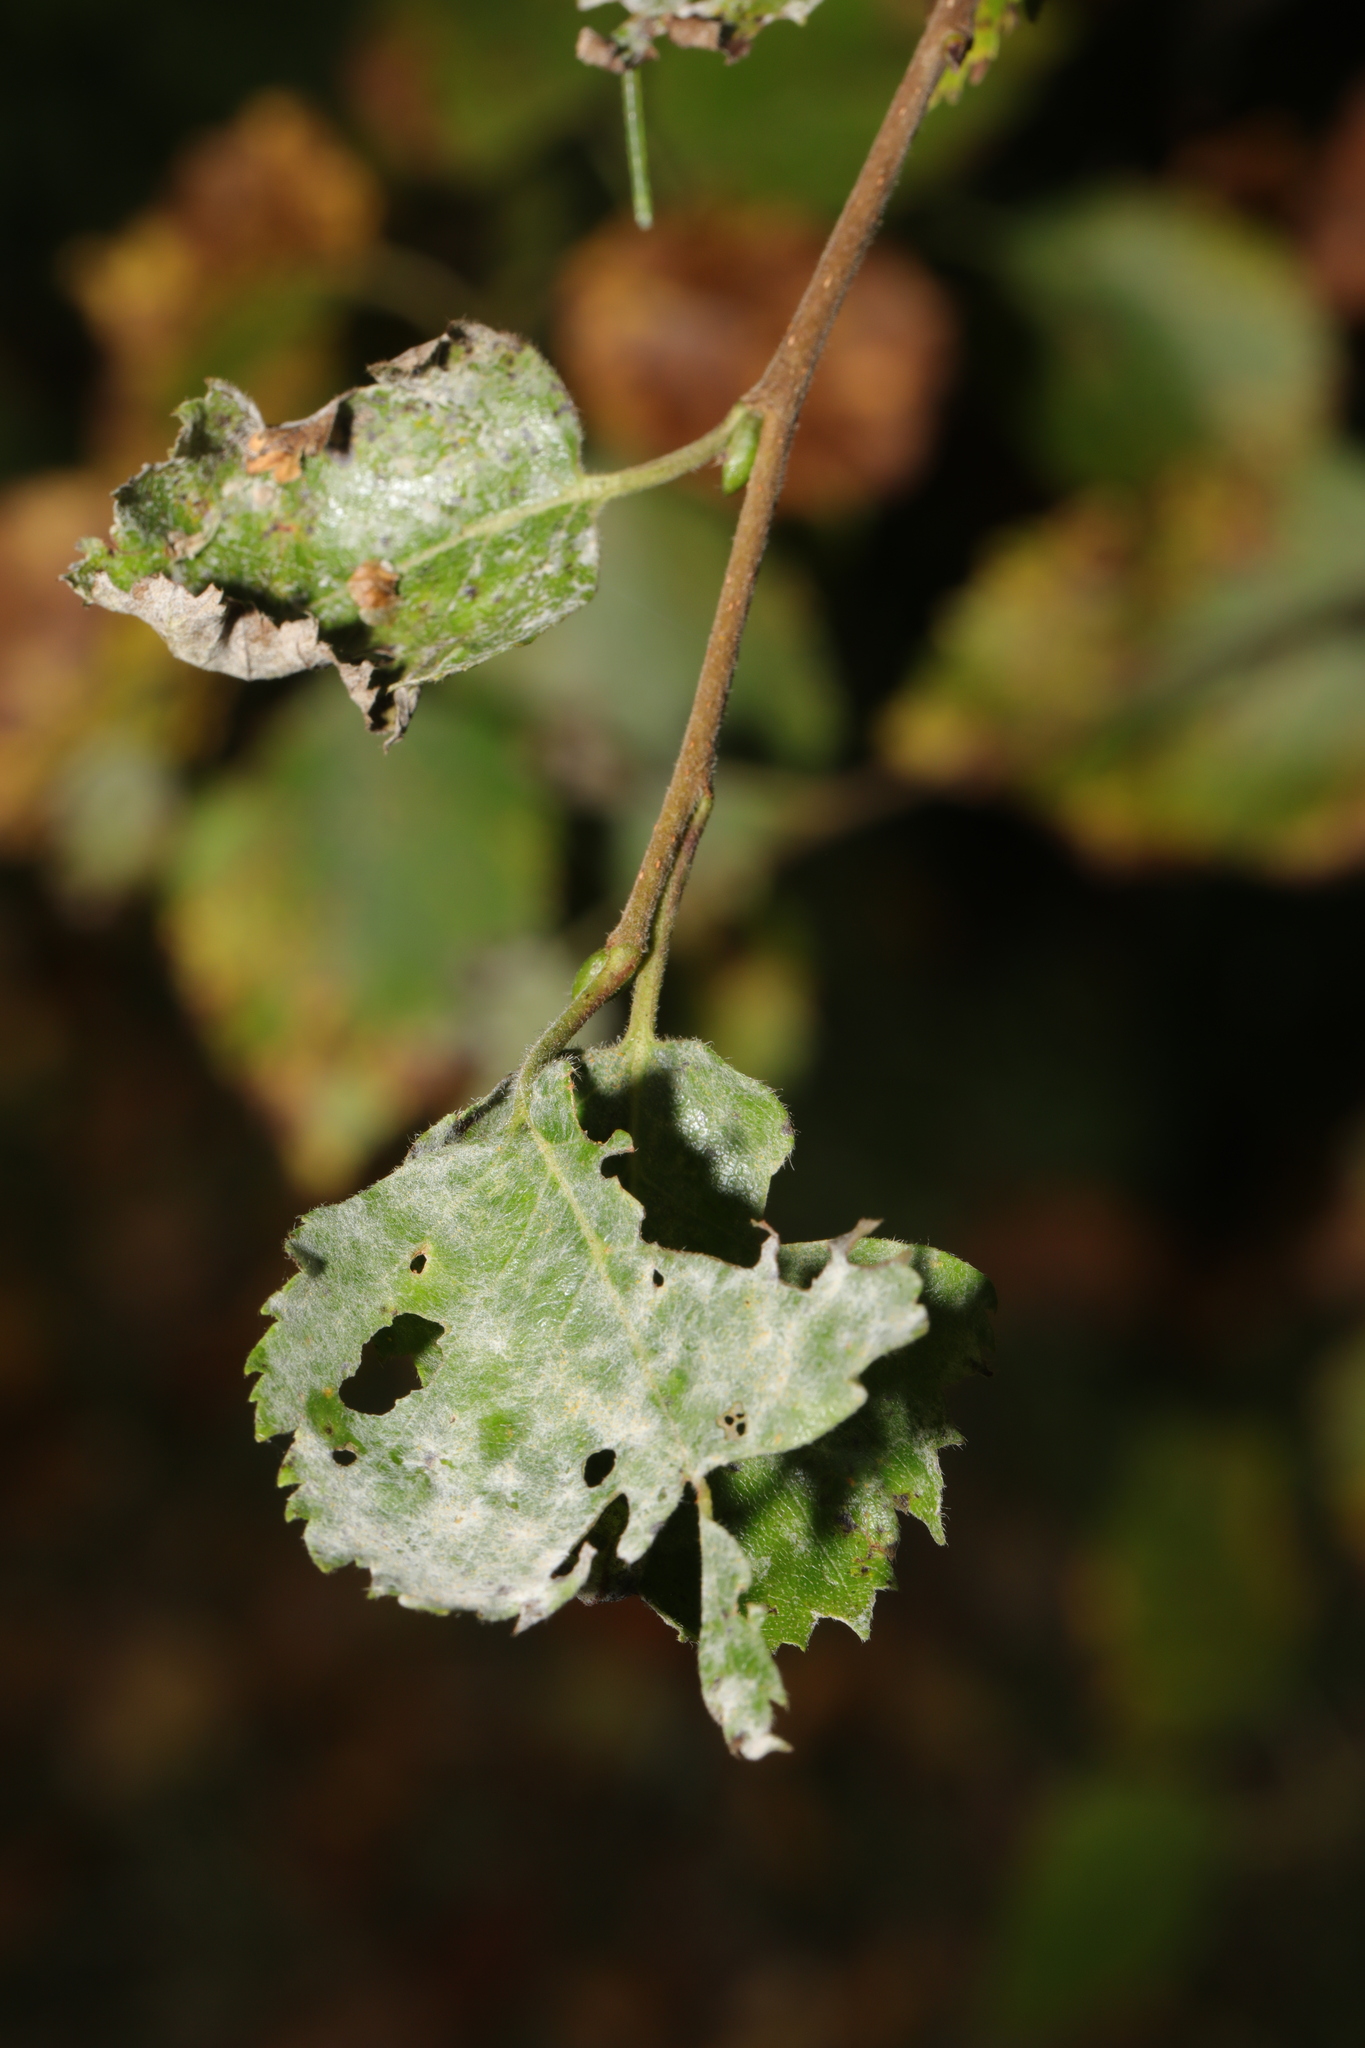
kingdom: Fungi
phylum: Ascomycota
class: Leotiomycetes
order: Helotiales
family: Erysiphaceae
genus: Erysiphe
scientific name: Erysiphe ornata
